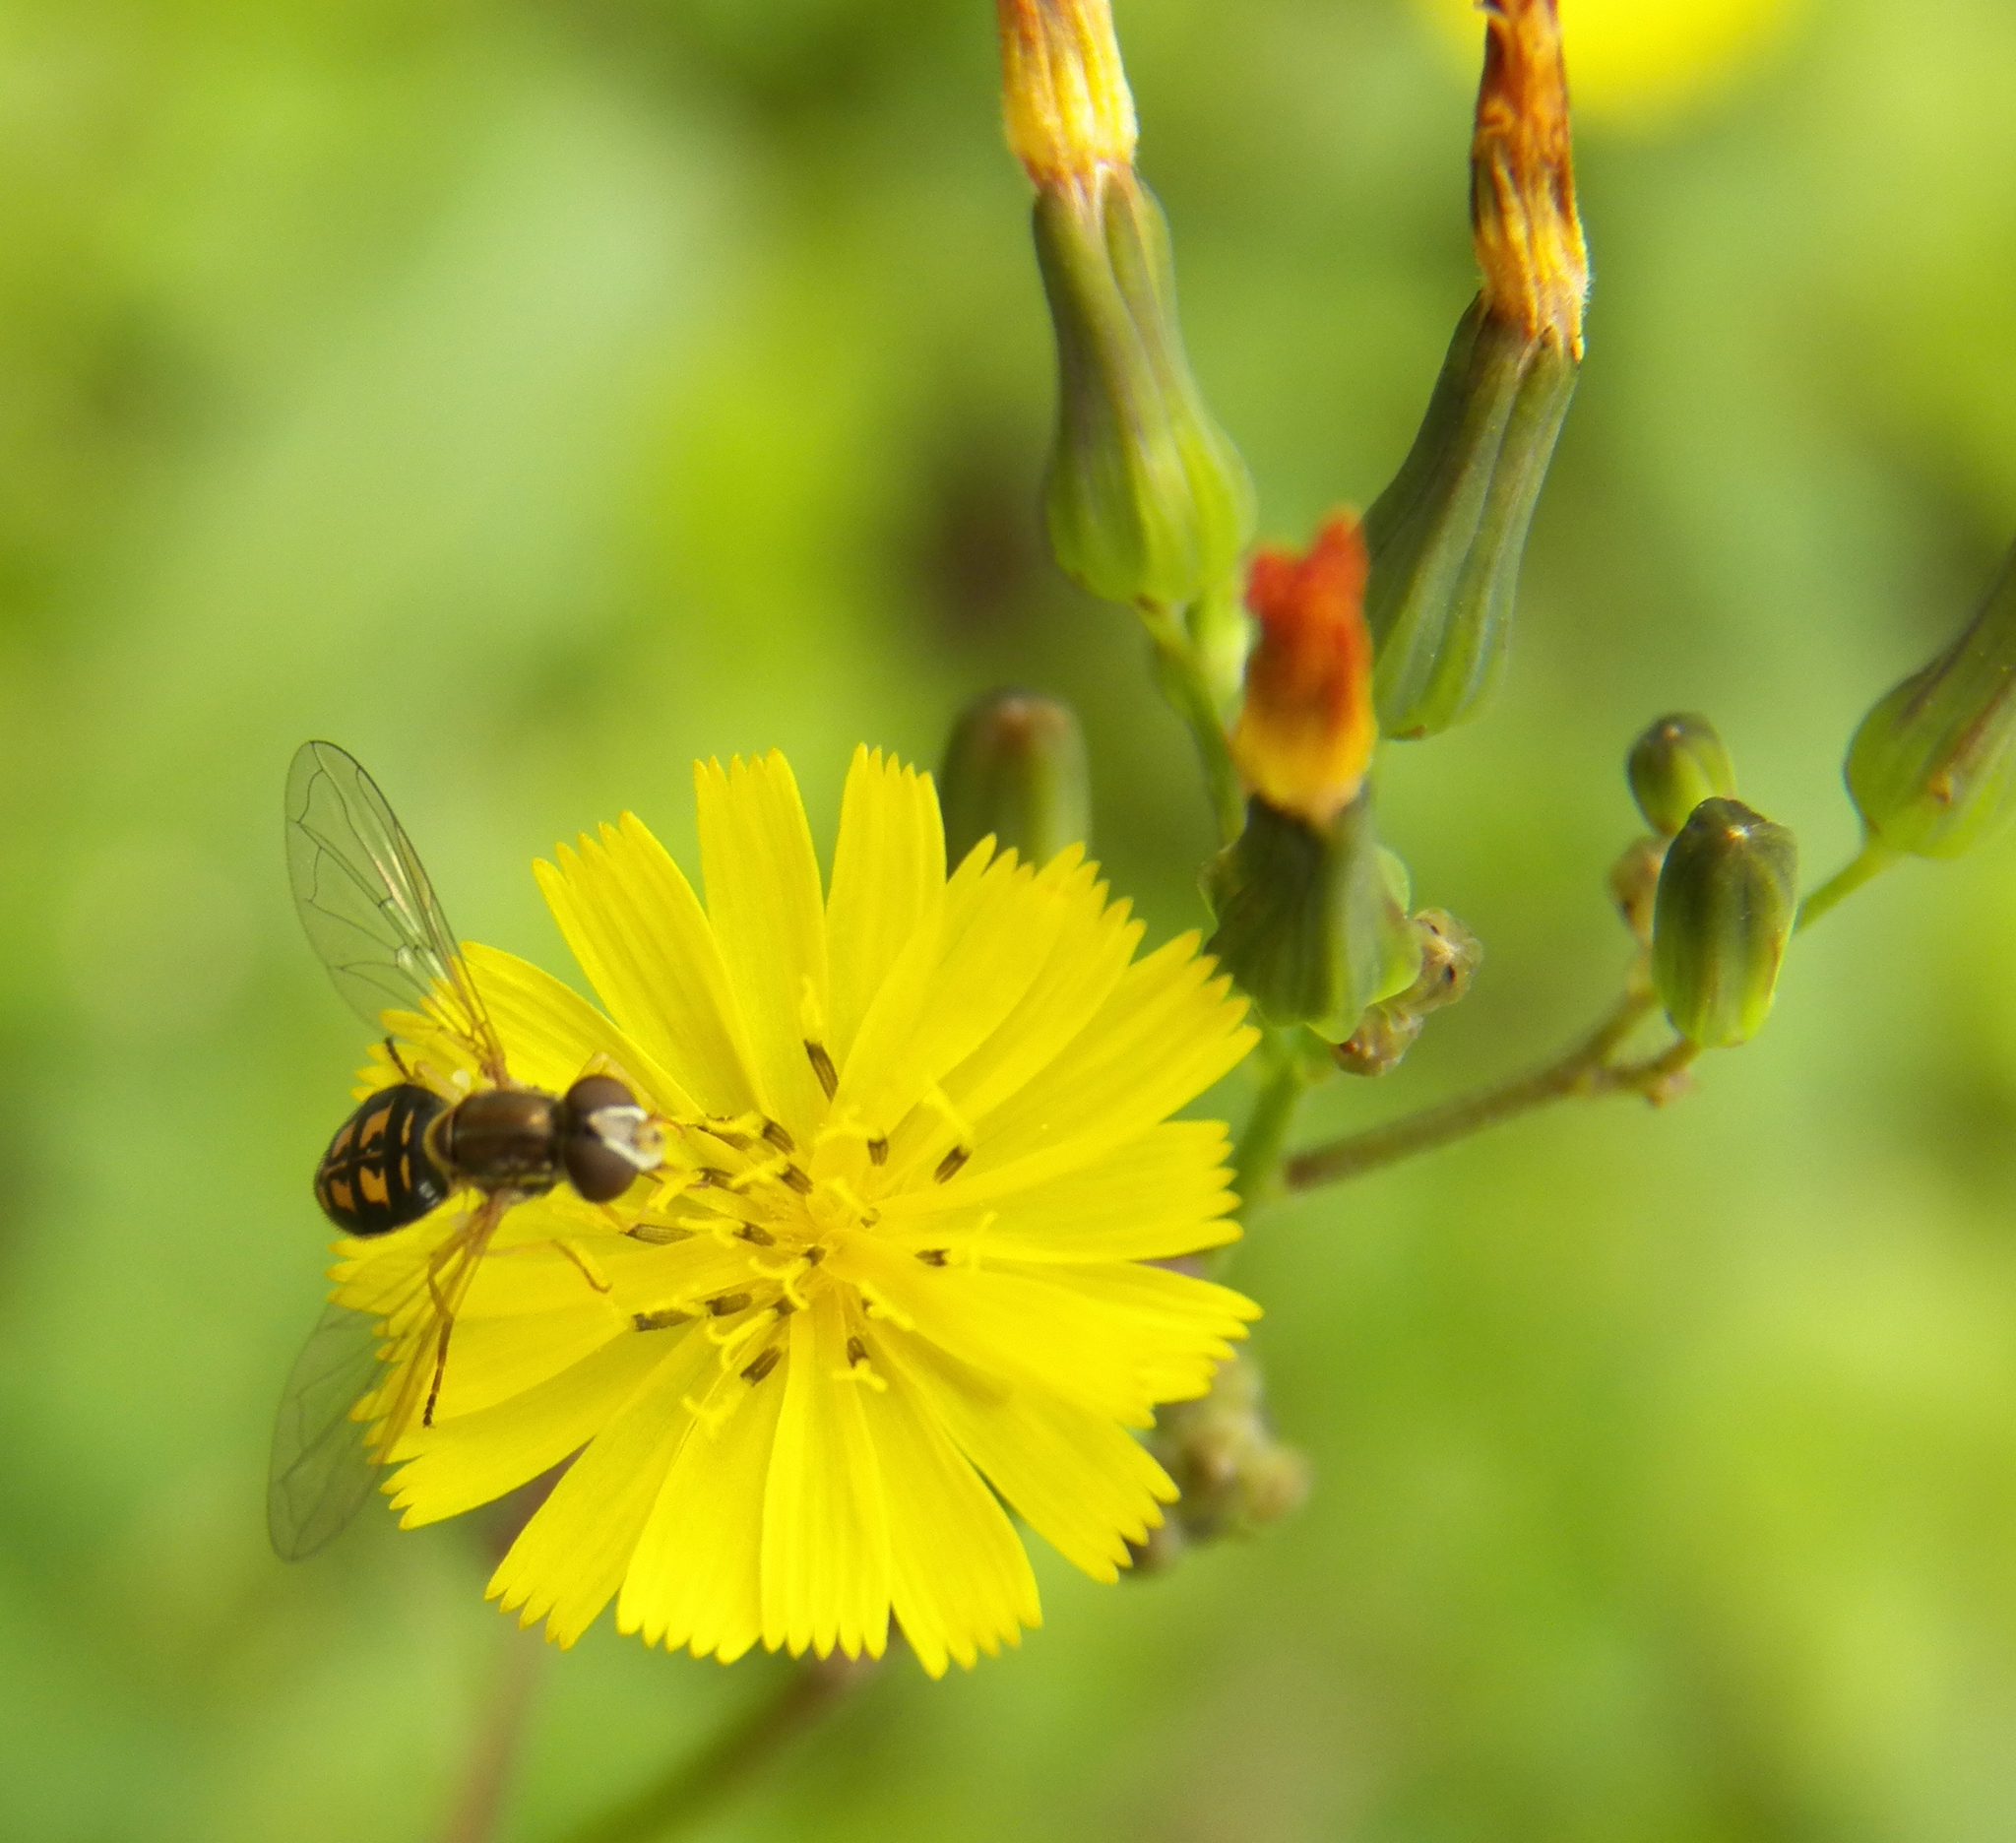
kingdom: Animalia
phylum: Arthropoda
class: Insecta
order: Diptera
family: Syrphidae
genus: Toxomerus
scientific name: Toxomerus marginatus
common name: Syrphid fly
